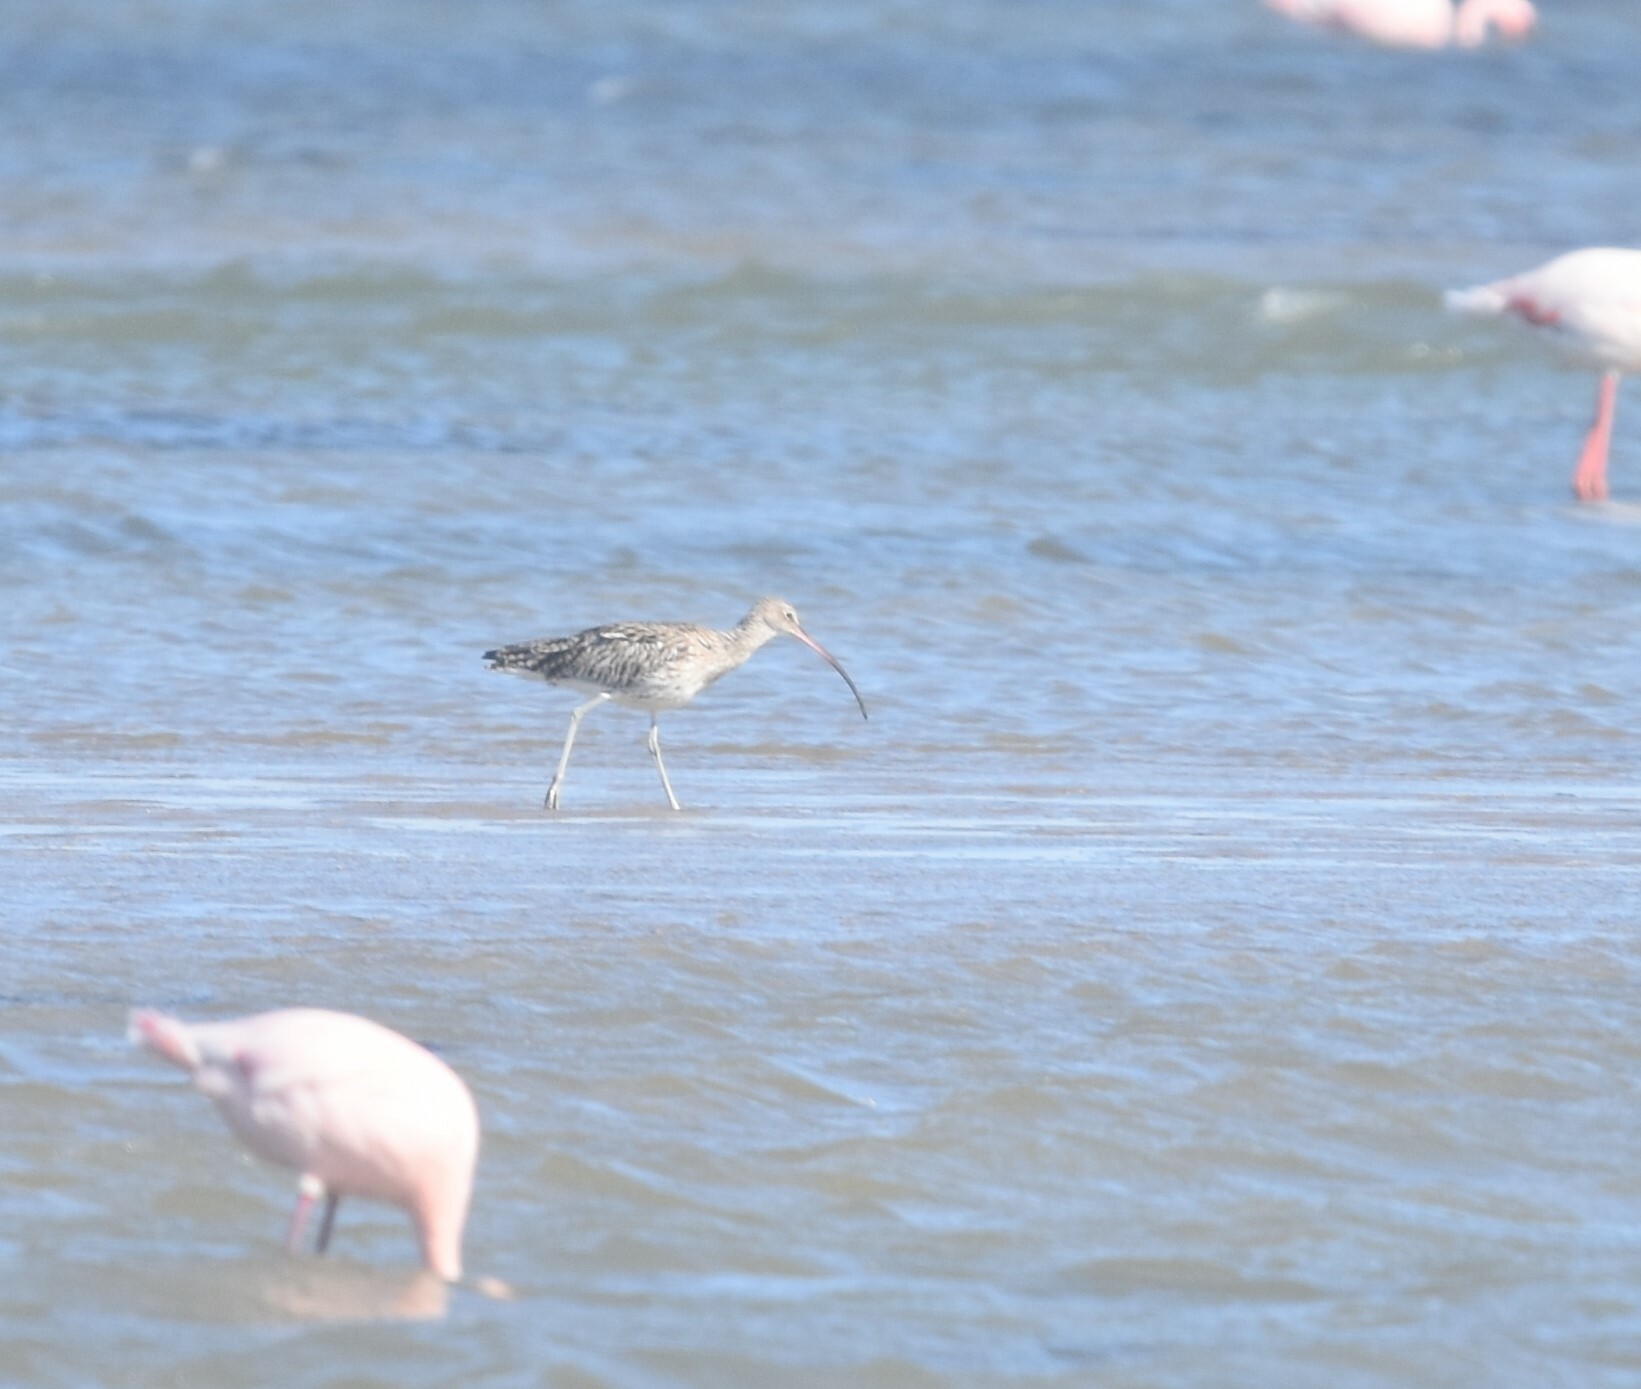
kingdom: Animalia
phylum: Chordata
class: Aves
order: Charadriiformes
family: Scolopacidae
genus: Numenius
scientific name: Numenius arquata
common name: Eurasian curlew
